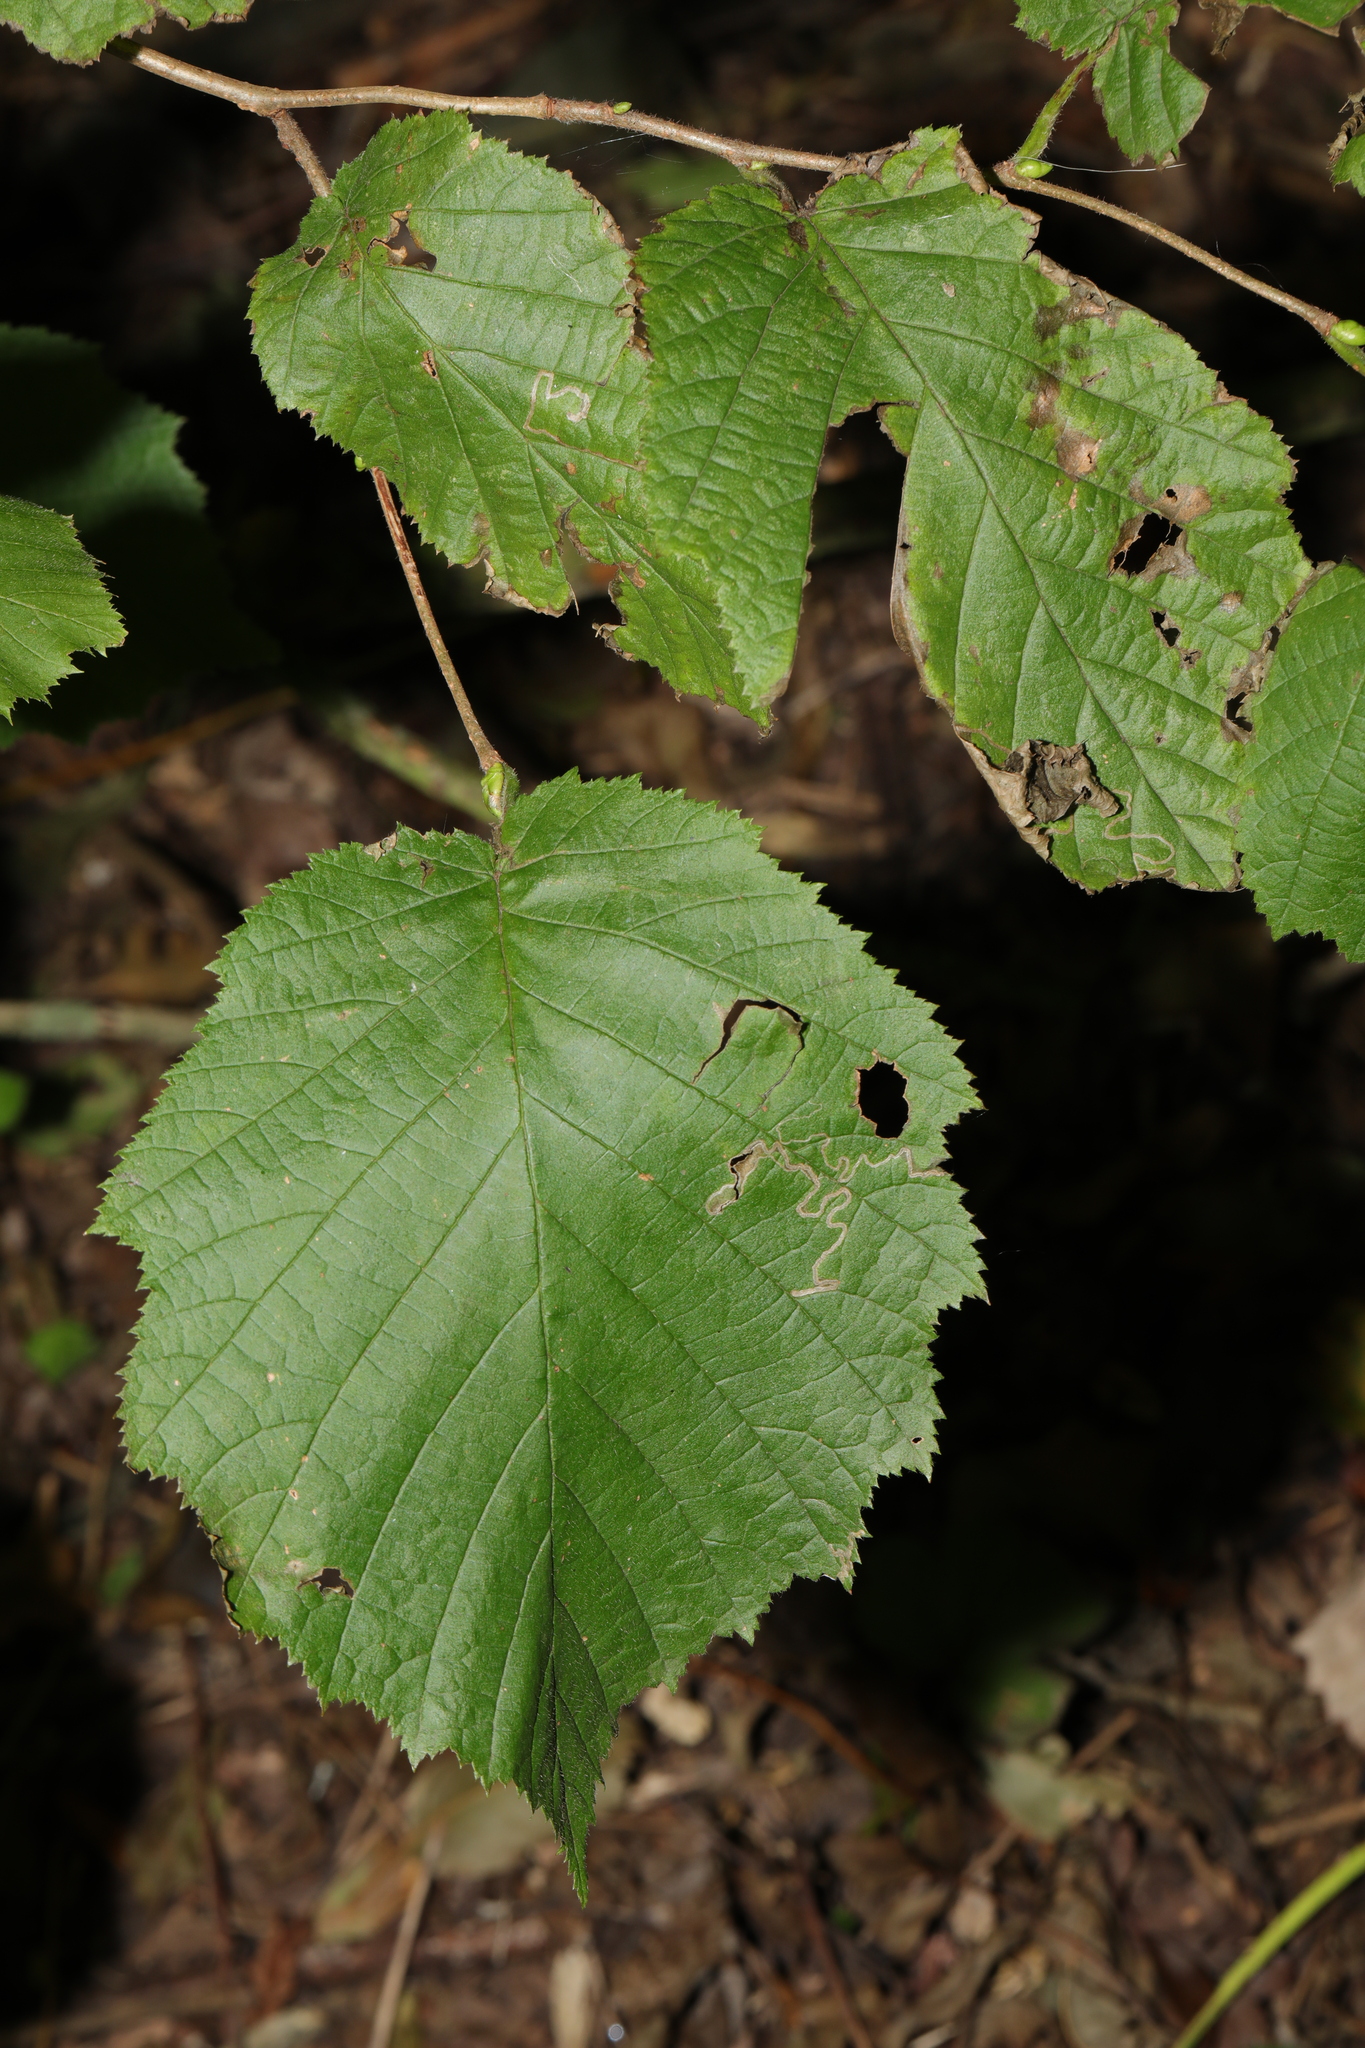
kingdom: Plantae
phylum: Tracheophyta
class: Magnoliopsida
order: Fagales
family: Betulaceae
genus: Corylus
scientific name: Corylus avellana
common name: European hazel
